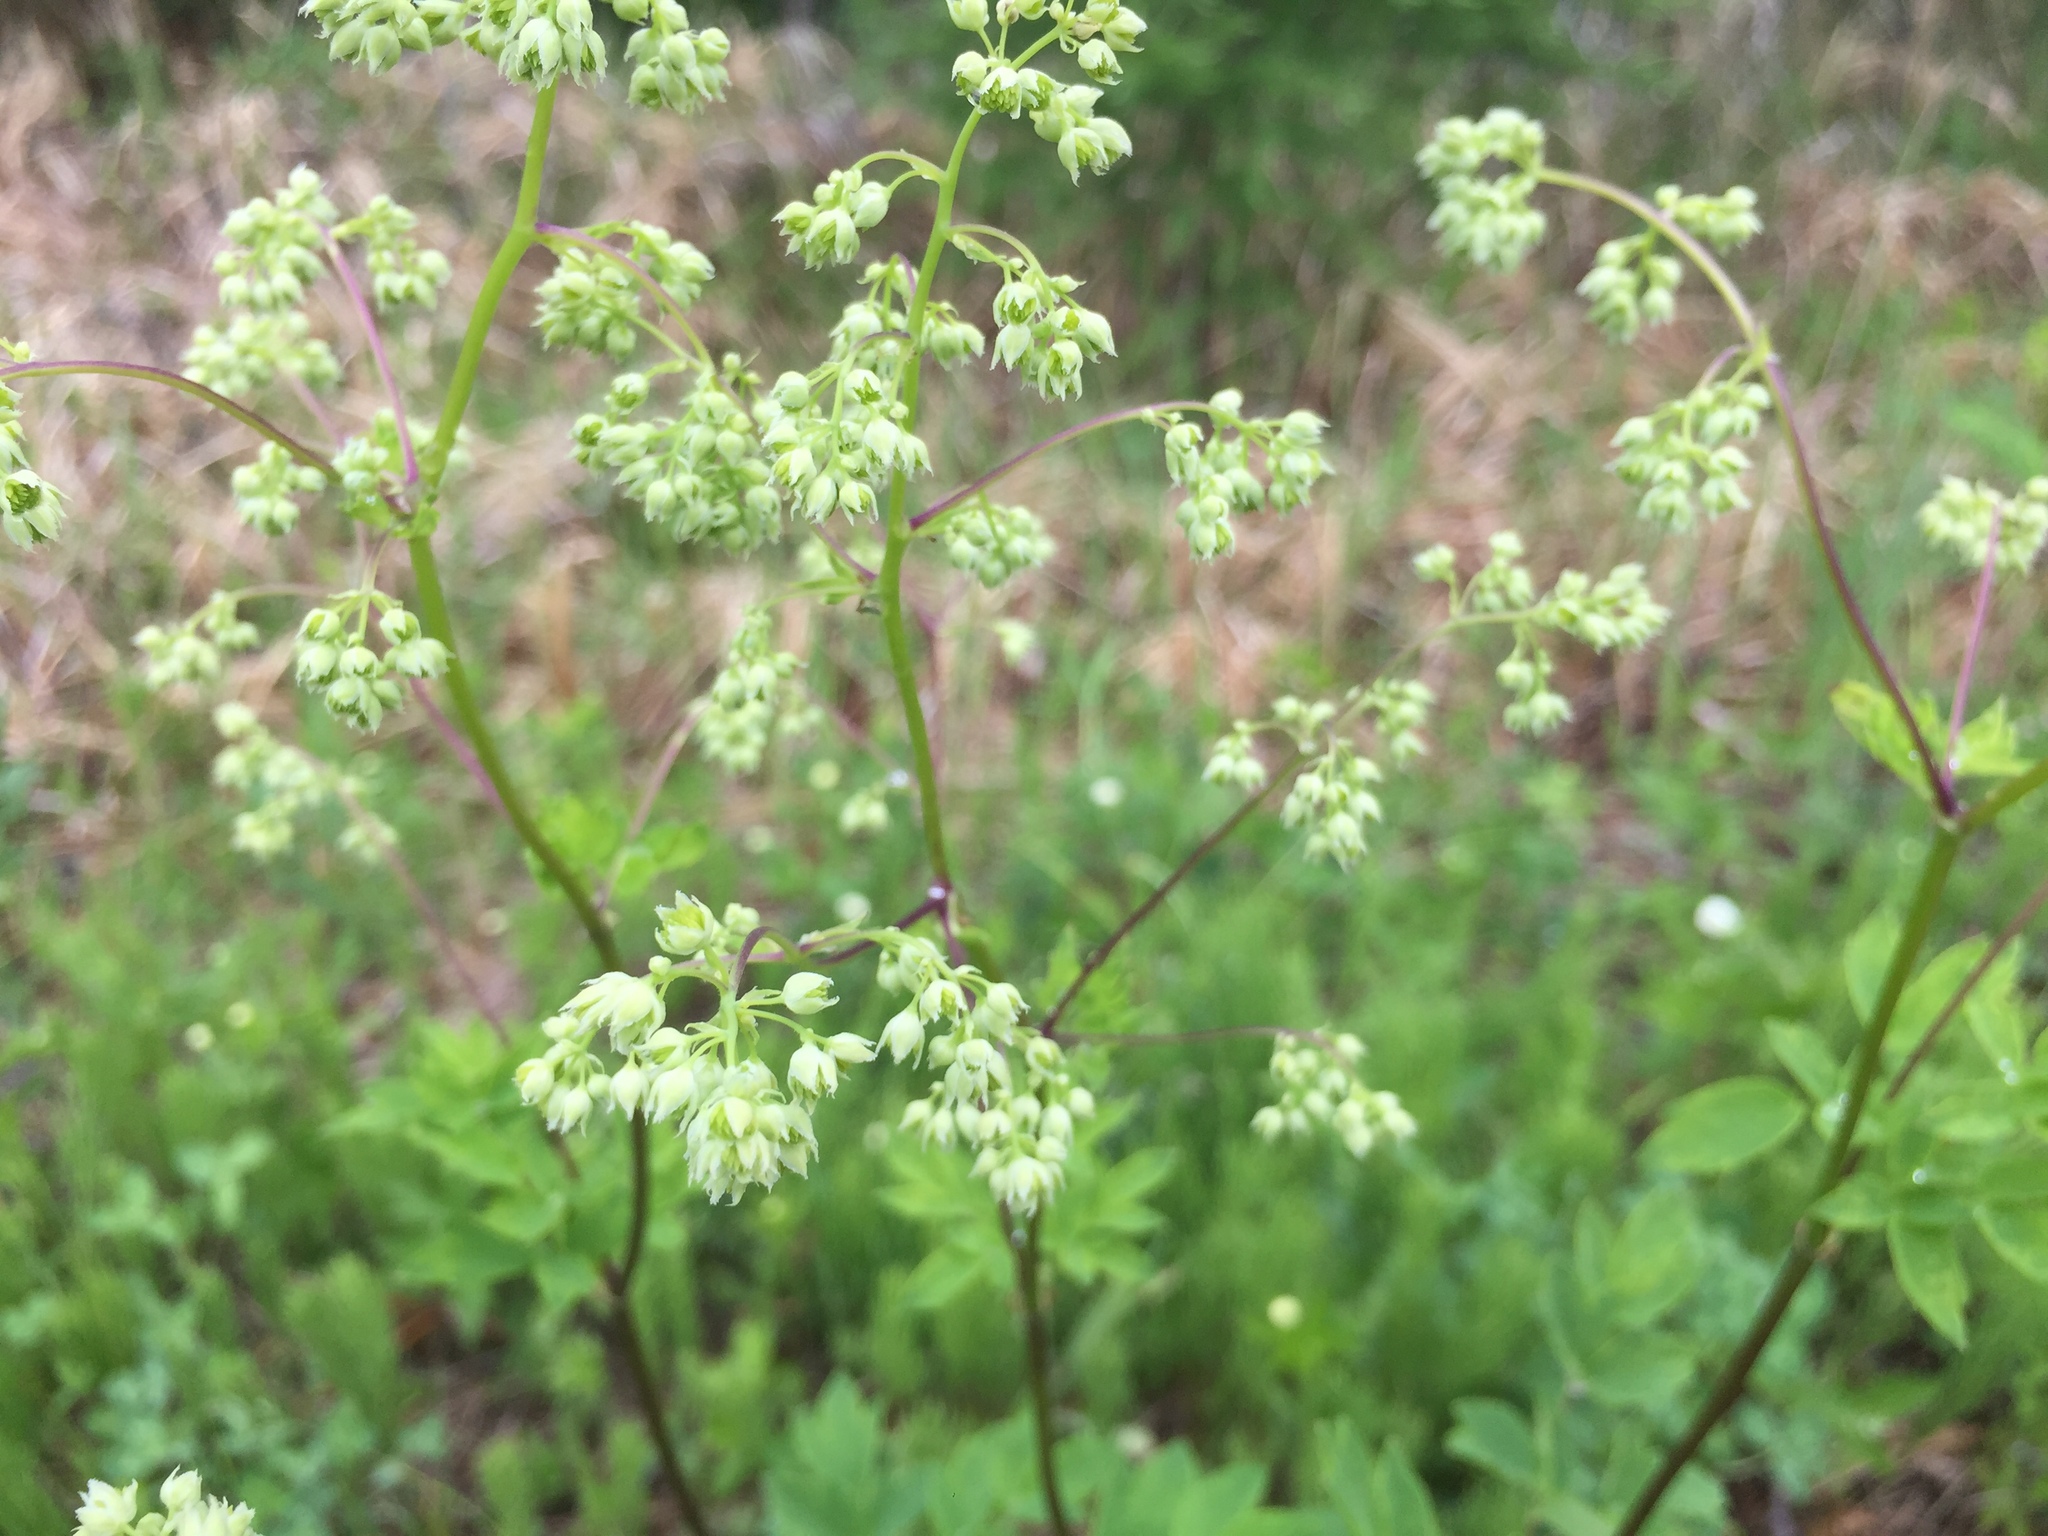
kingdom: Plantae
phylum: Tracheophyta
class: Magnoliopsida
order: Ranunculales
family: Ranunculaceae
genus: Thalictrum
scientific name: Thalictrum dasycarpum
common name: Purple meadow-rue
